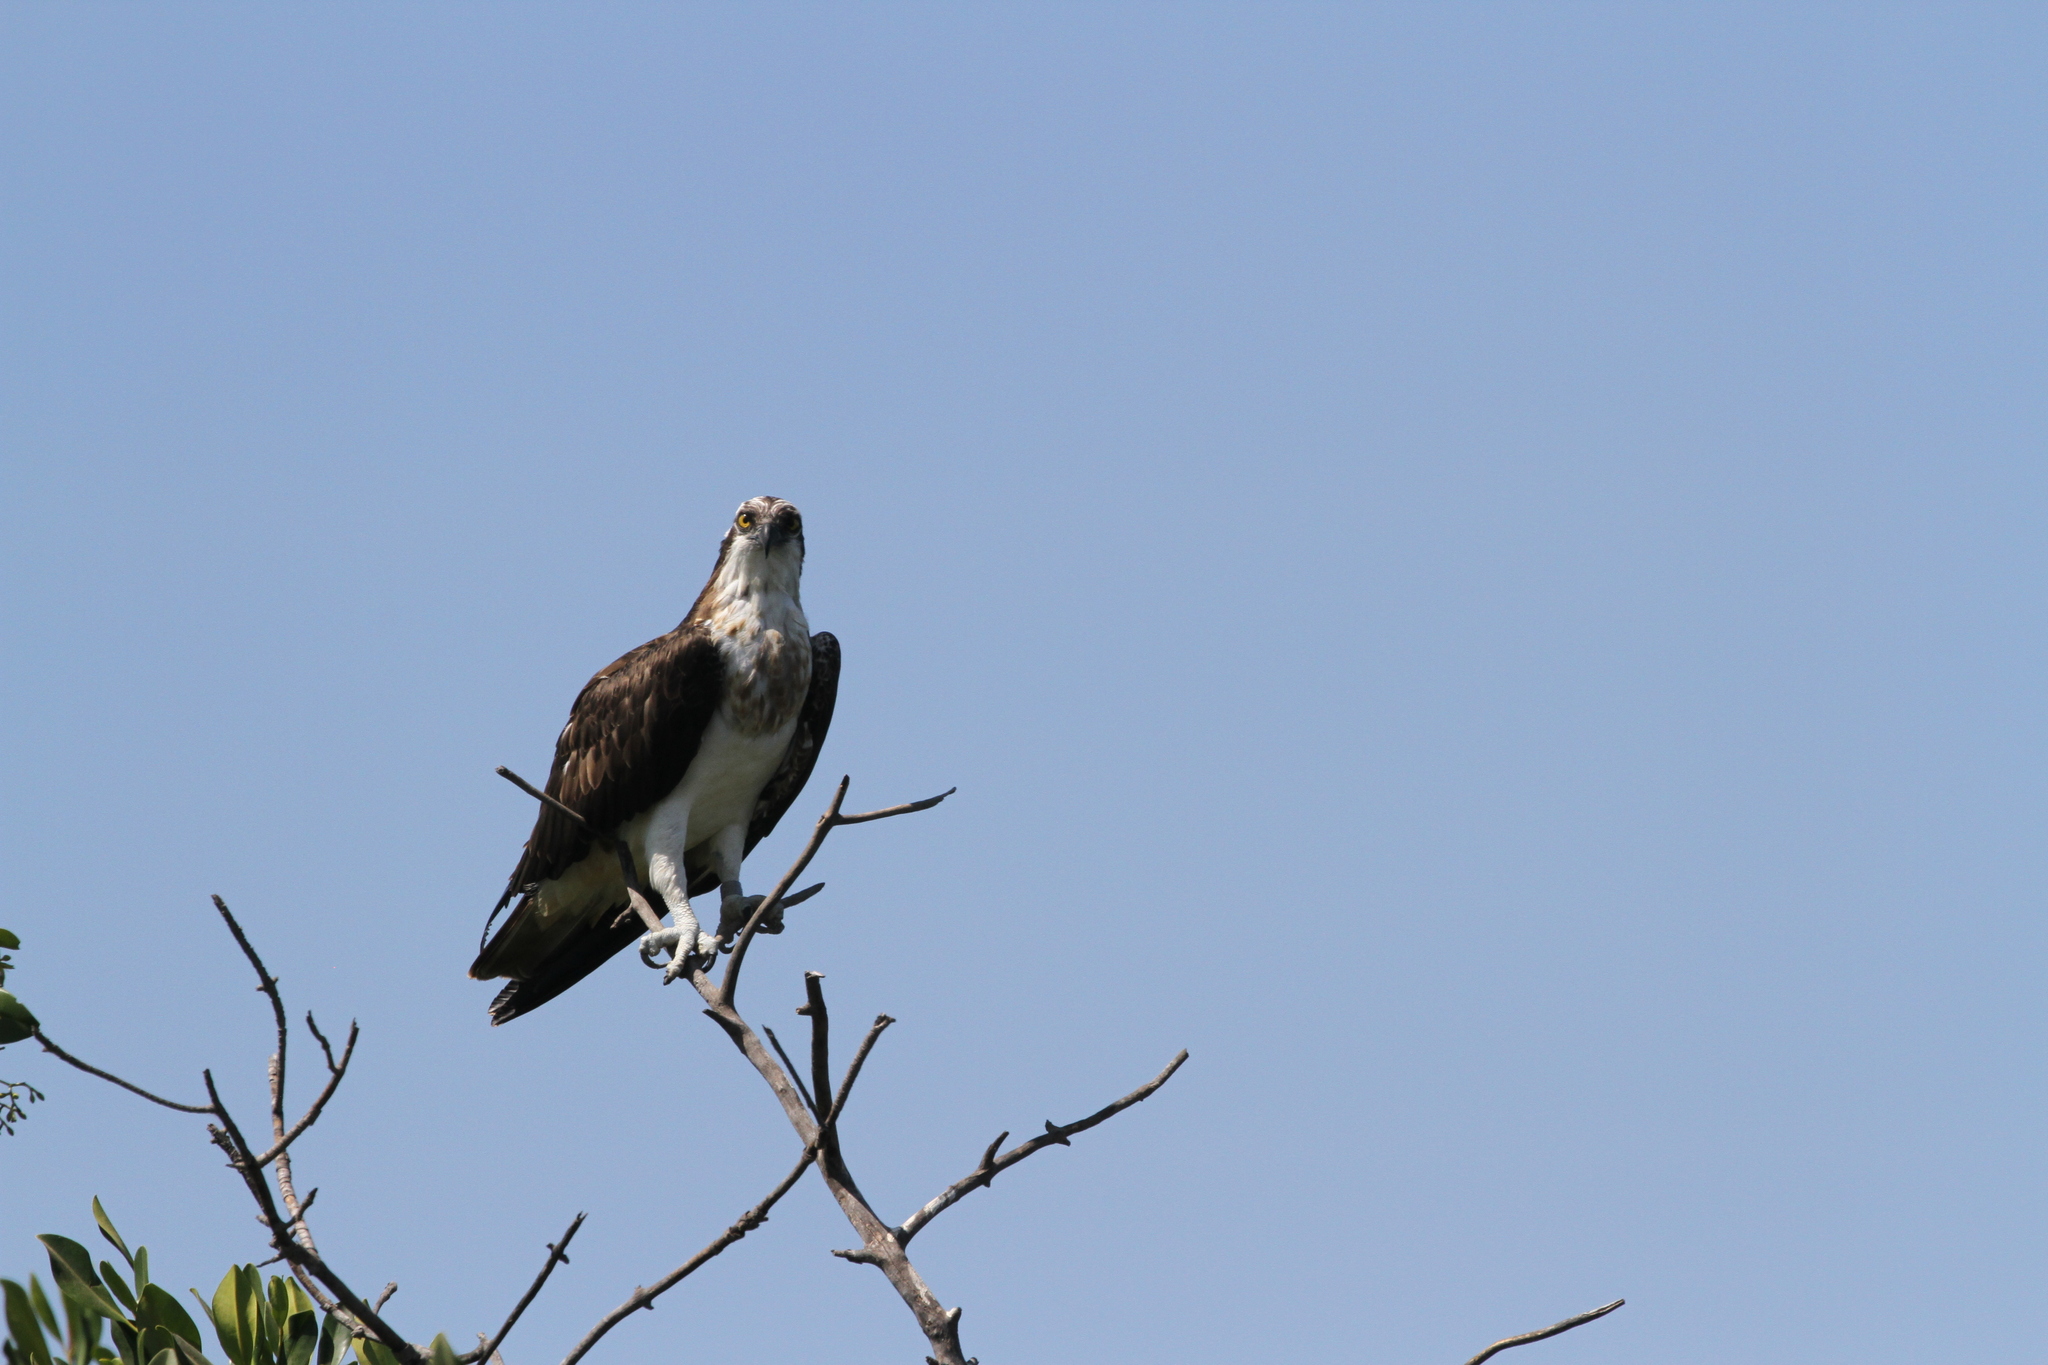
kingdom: Animalia
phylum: Chordata
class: Aves
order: Accipitriformes
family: Pandionidae
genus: Pandion
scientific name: Pandion haliaetus
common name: Osprey
